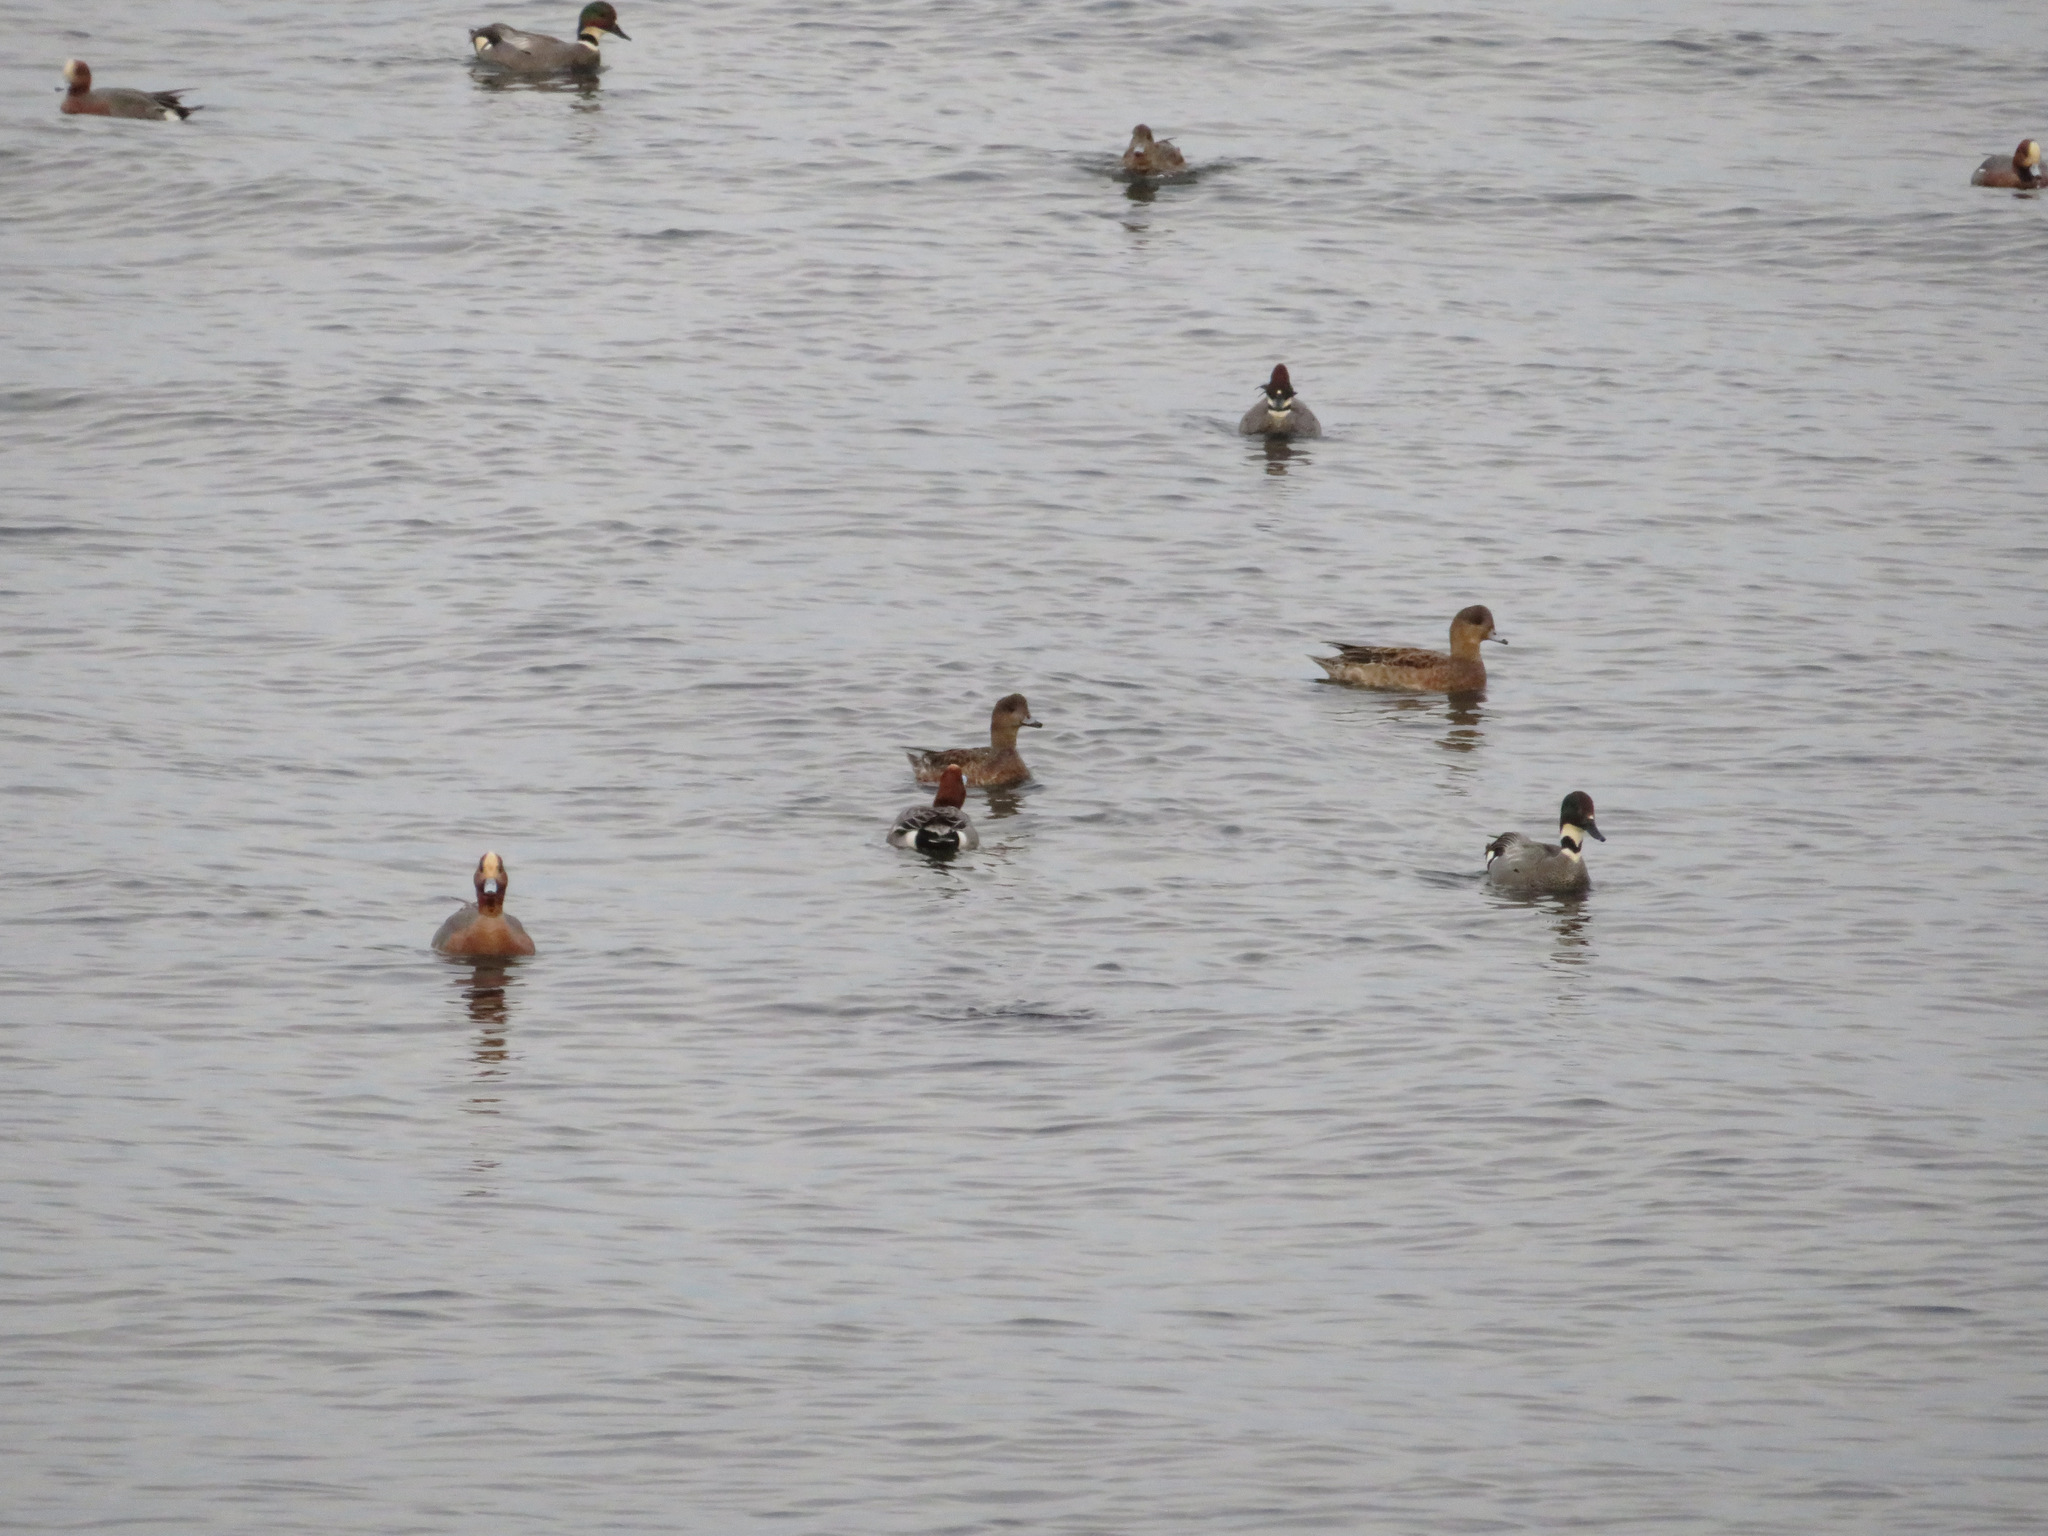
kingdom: Animalia
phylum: Chordata
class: Aves
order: Anseriformes
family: Anatidae
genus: Mareca
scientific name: Mareca falcata
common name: Falcated duck
